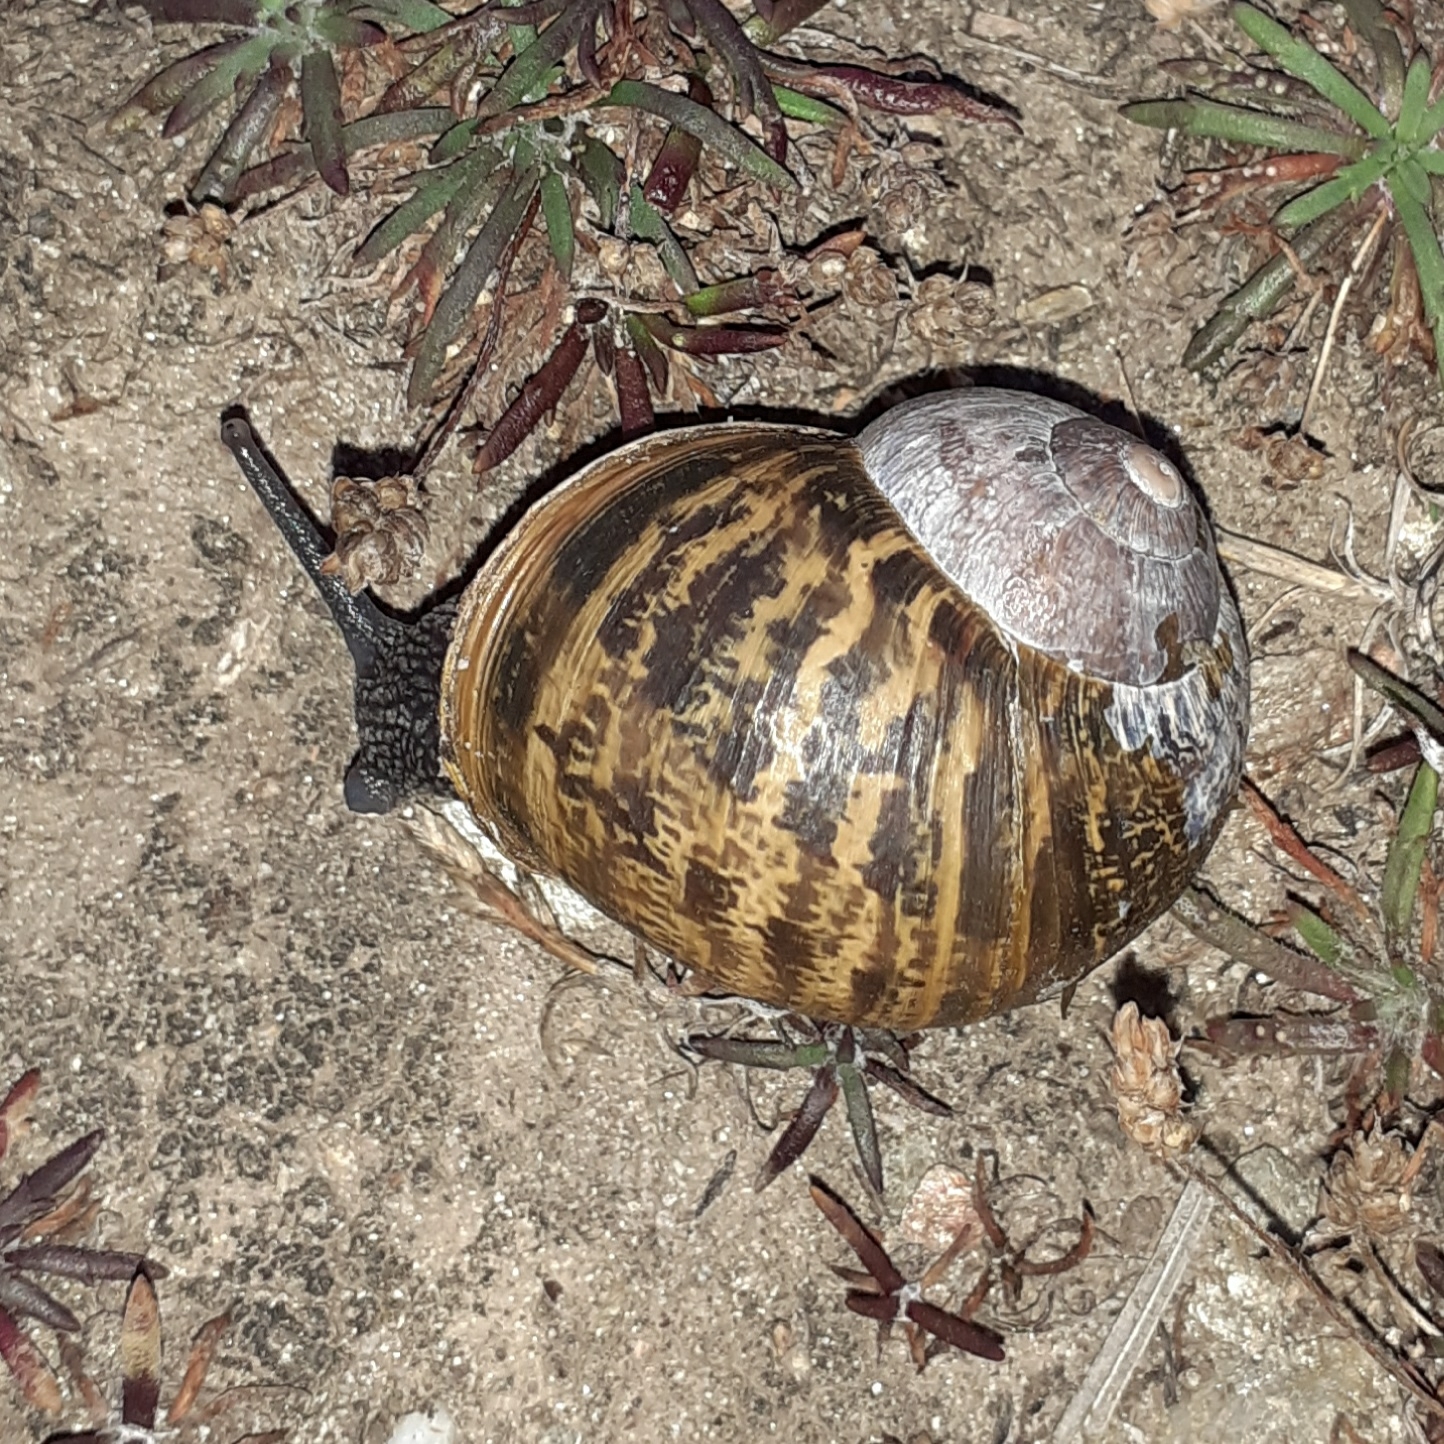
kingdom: Animalia
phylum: Mollusca
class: Gastropoda
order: Stylommatophora
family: Helicidae
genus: Cornu
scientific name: Cornu aspersum
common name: Brown garden snail
